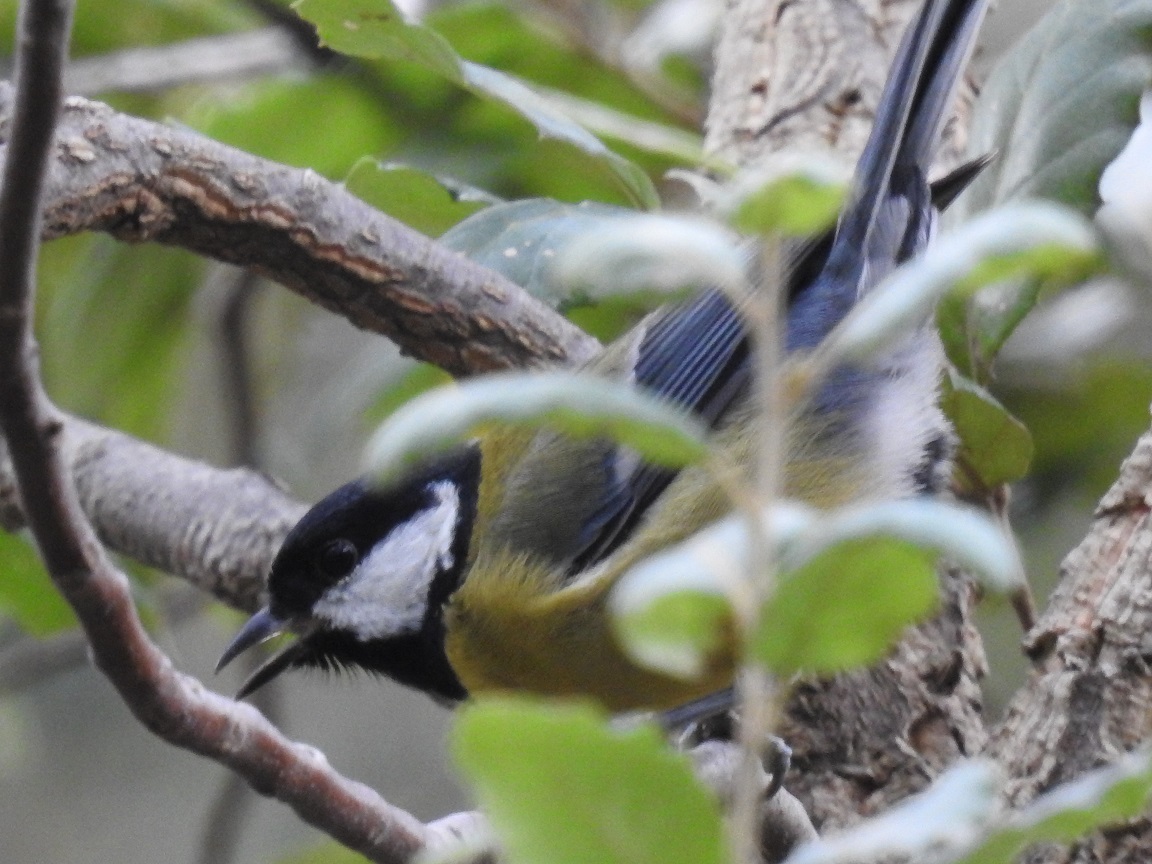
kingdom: Animalia
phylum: Chordata
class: Aves
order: Passeriformes
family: Paridae
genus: Parus
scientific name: Parus major
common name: Great tit
